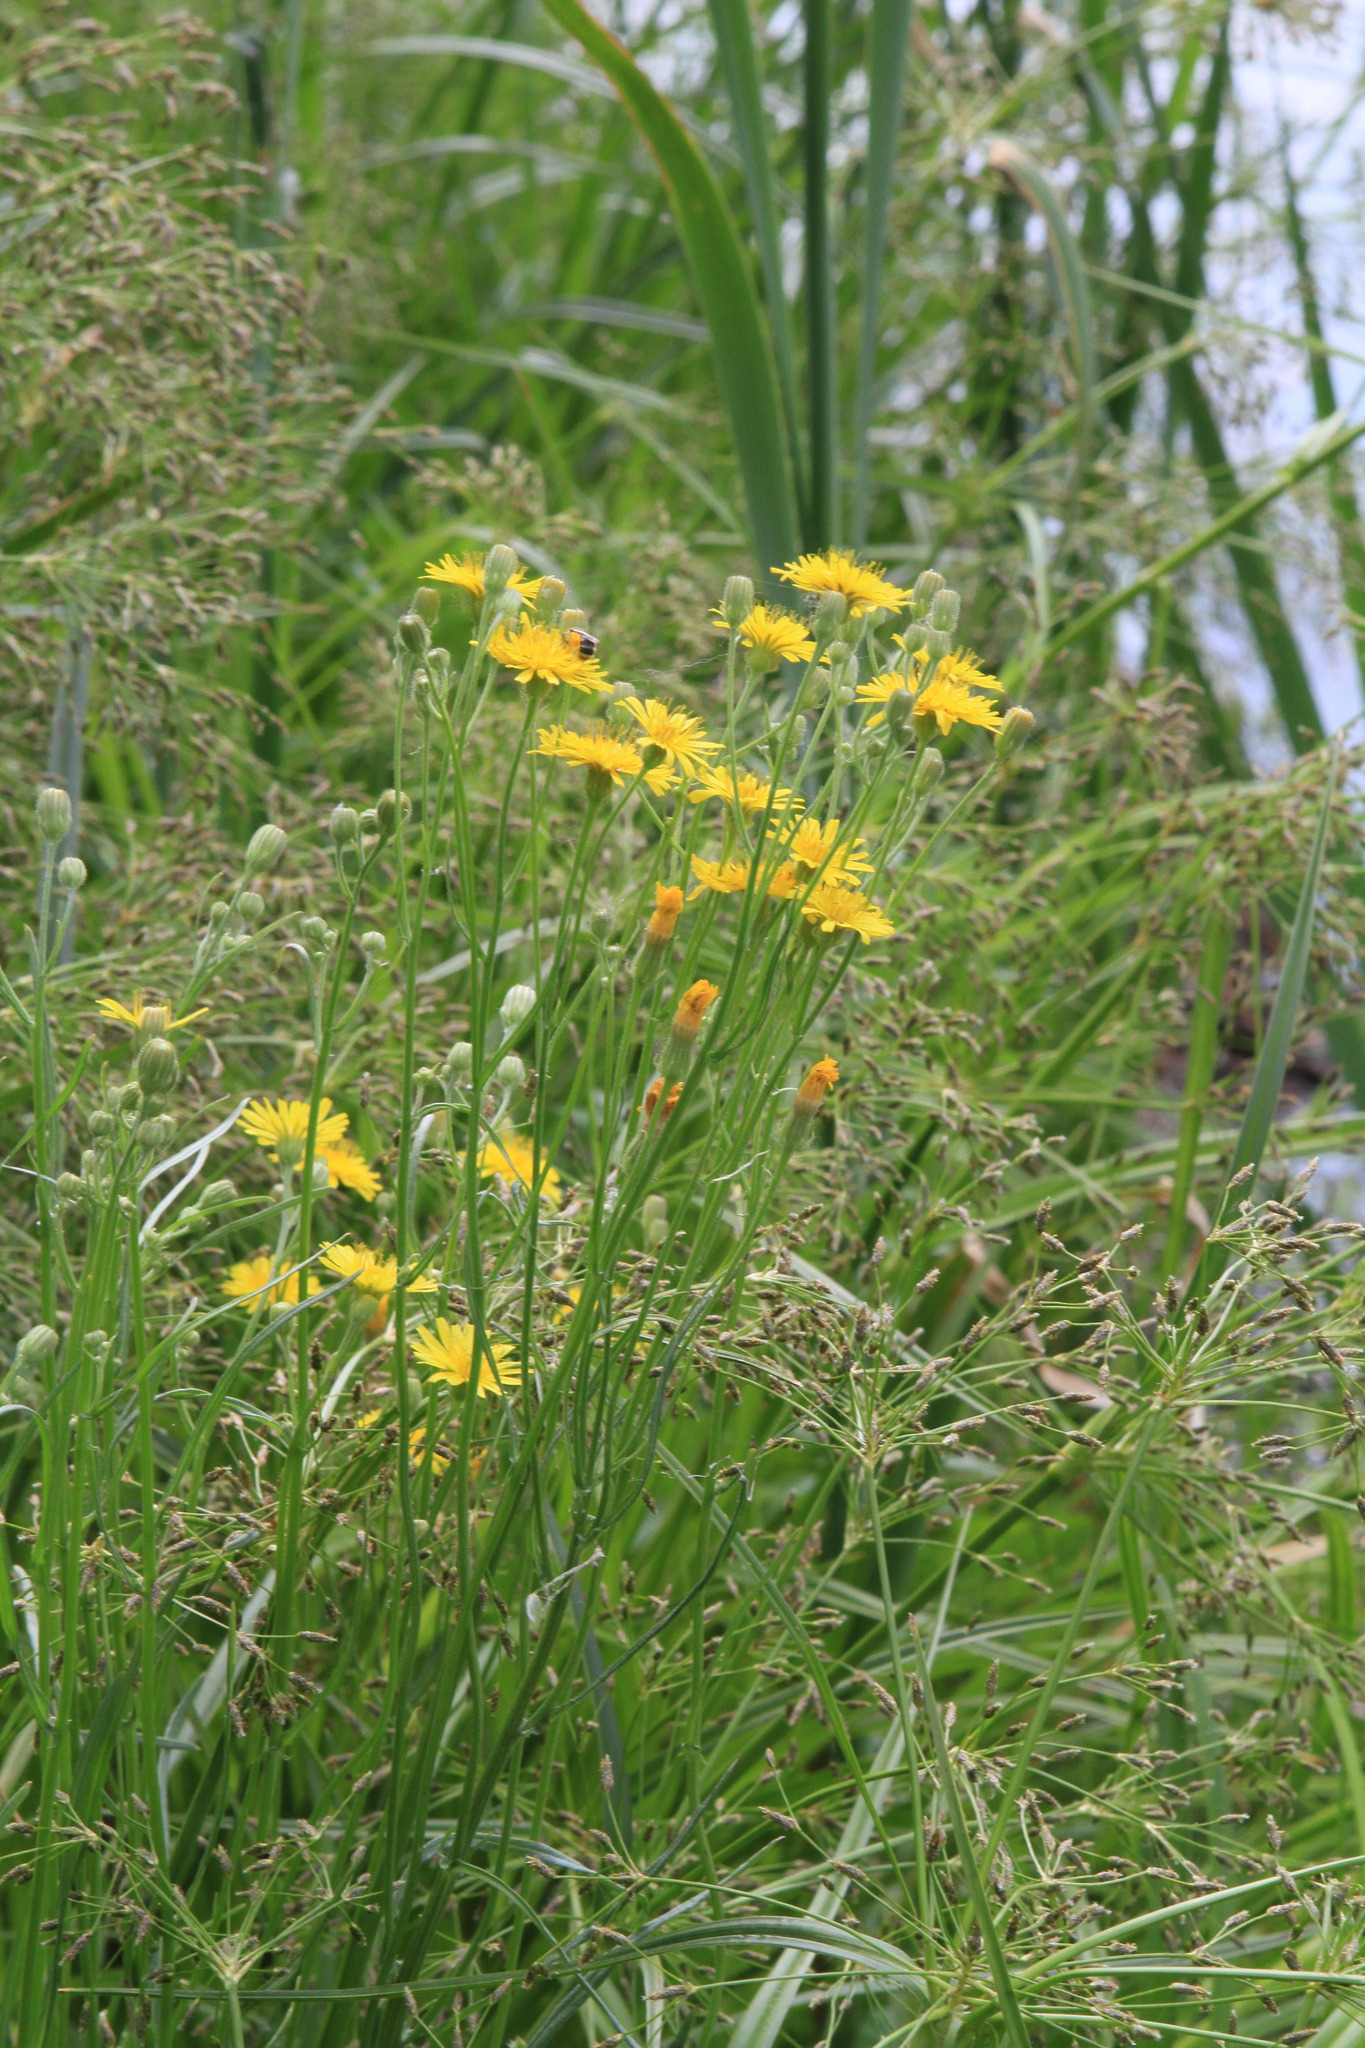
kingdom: Plantae
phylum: Tracheophyta
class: Magnoliopsida
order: Asterales
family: Asteraceae
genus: Crepis
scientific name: Crepis tectorum
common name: Narrow-leaved hawk's-beard
